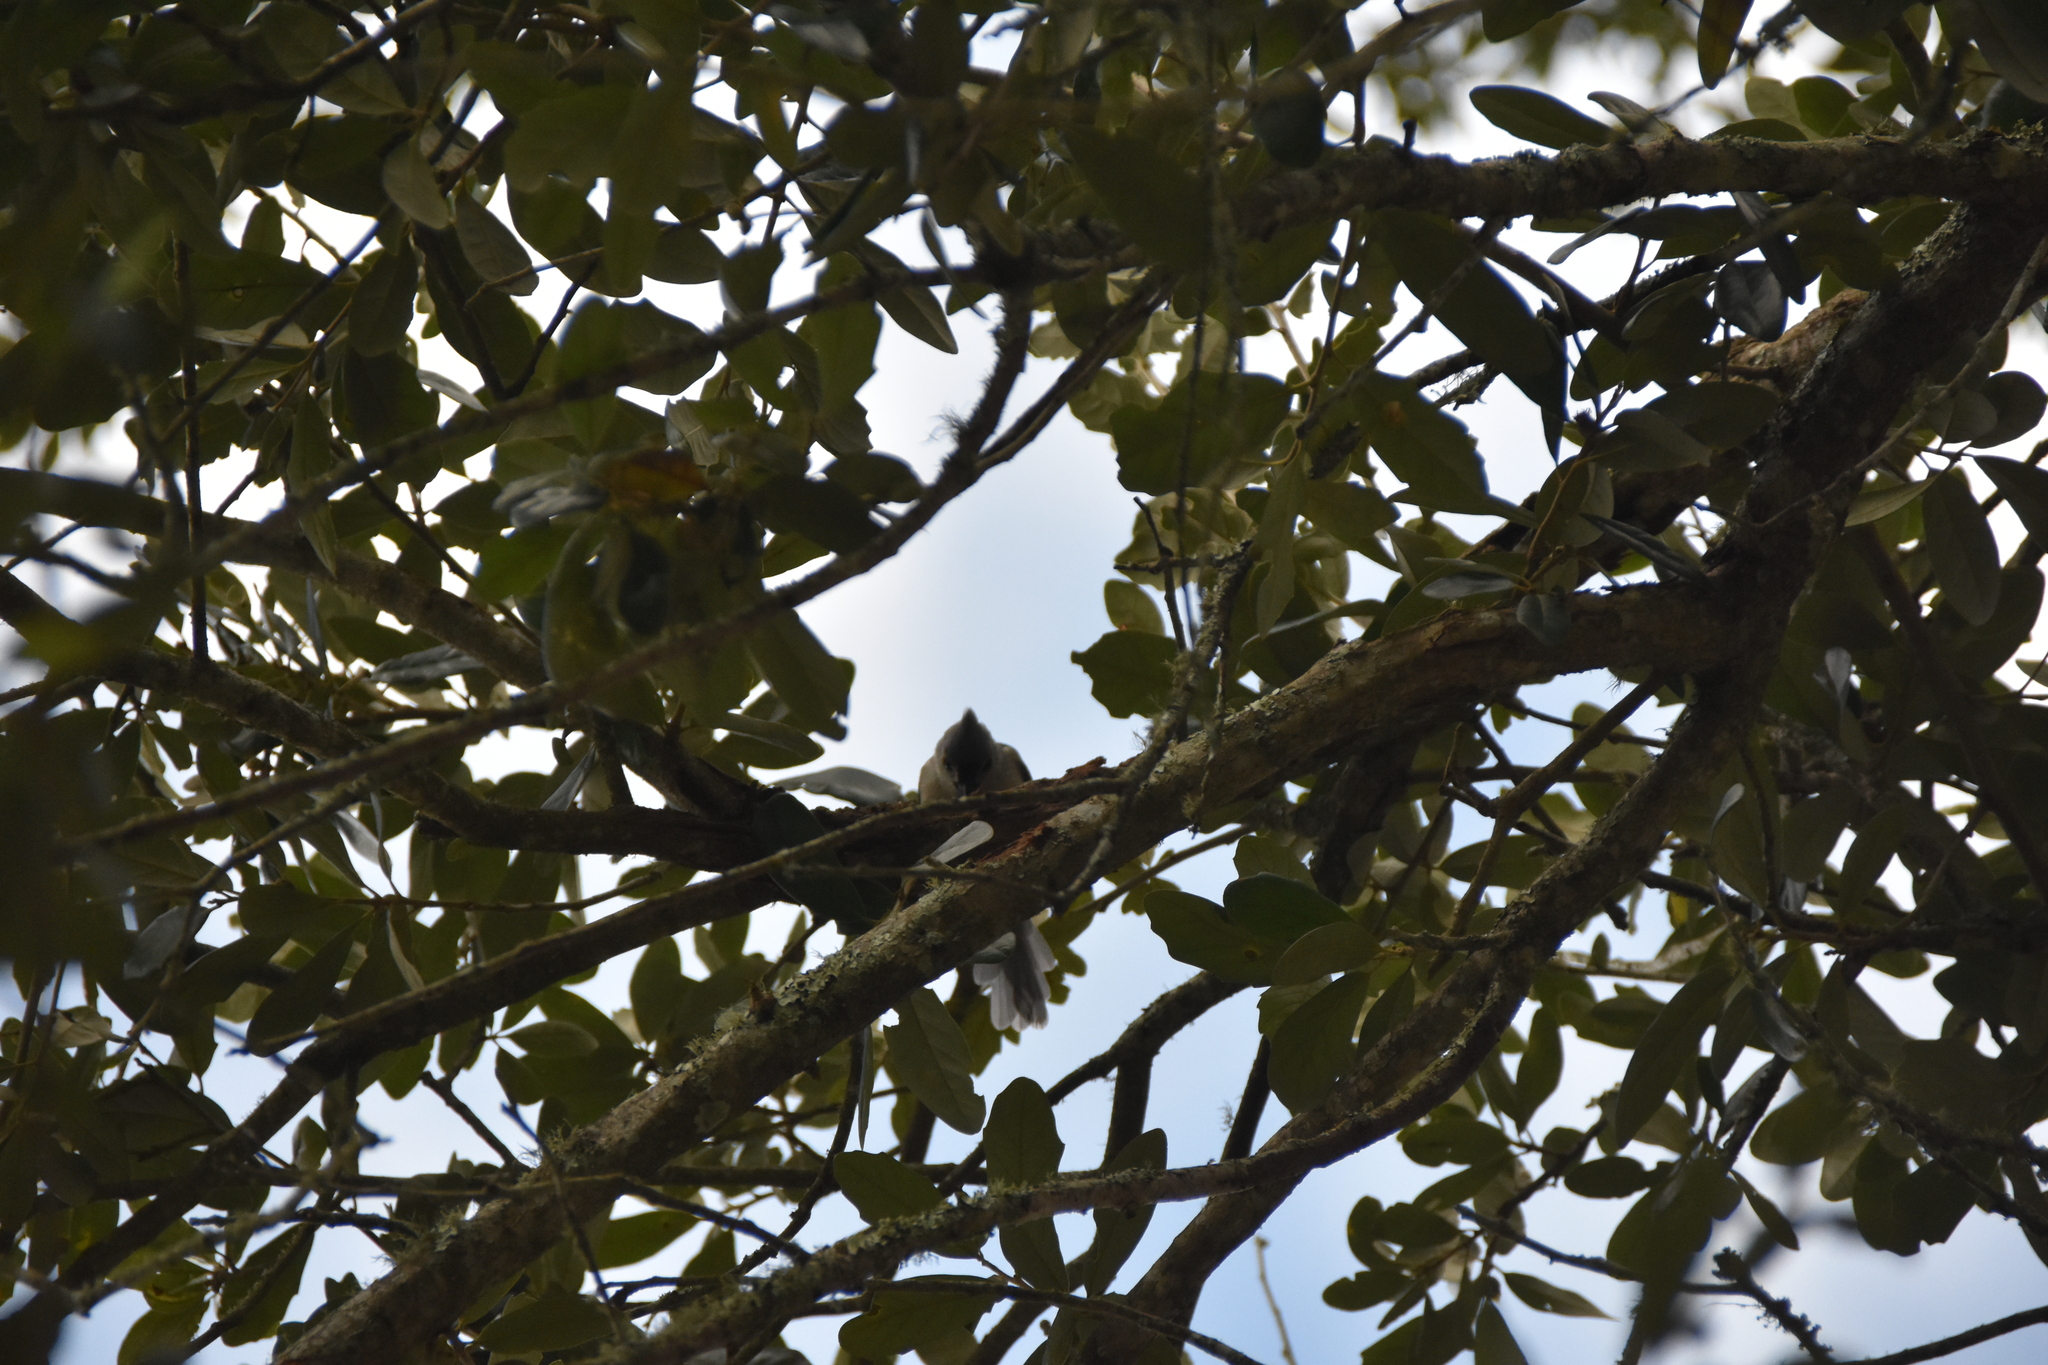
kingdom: Animalia
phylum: Chordata
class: Aves
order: Passeriformes
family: Paridae
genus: Baeolophus
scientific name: Baeolophus bicolor
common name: Tufted titmouse
